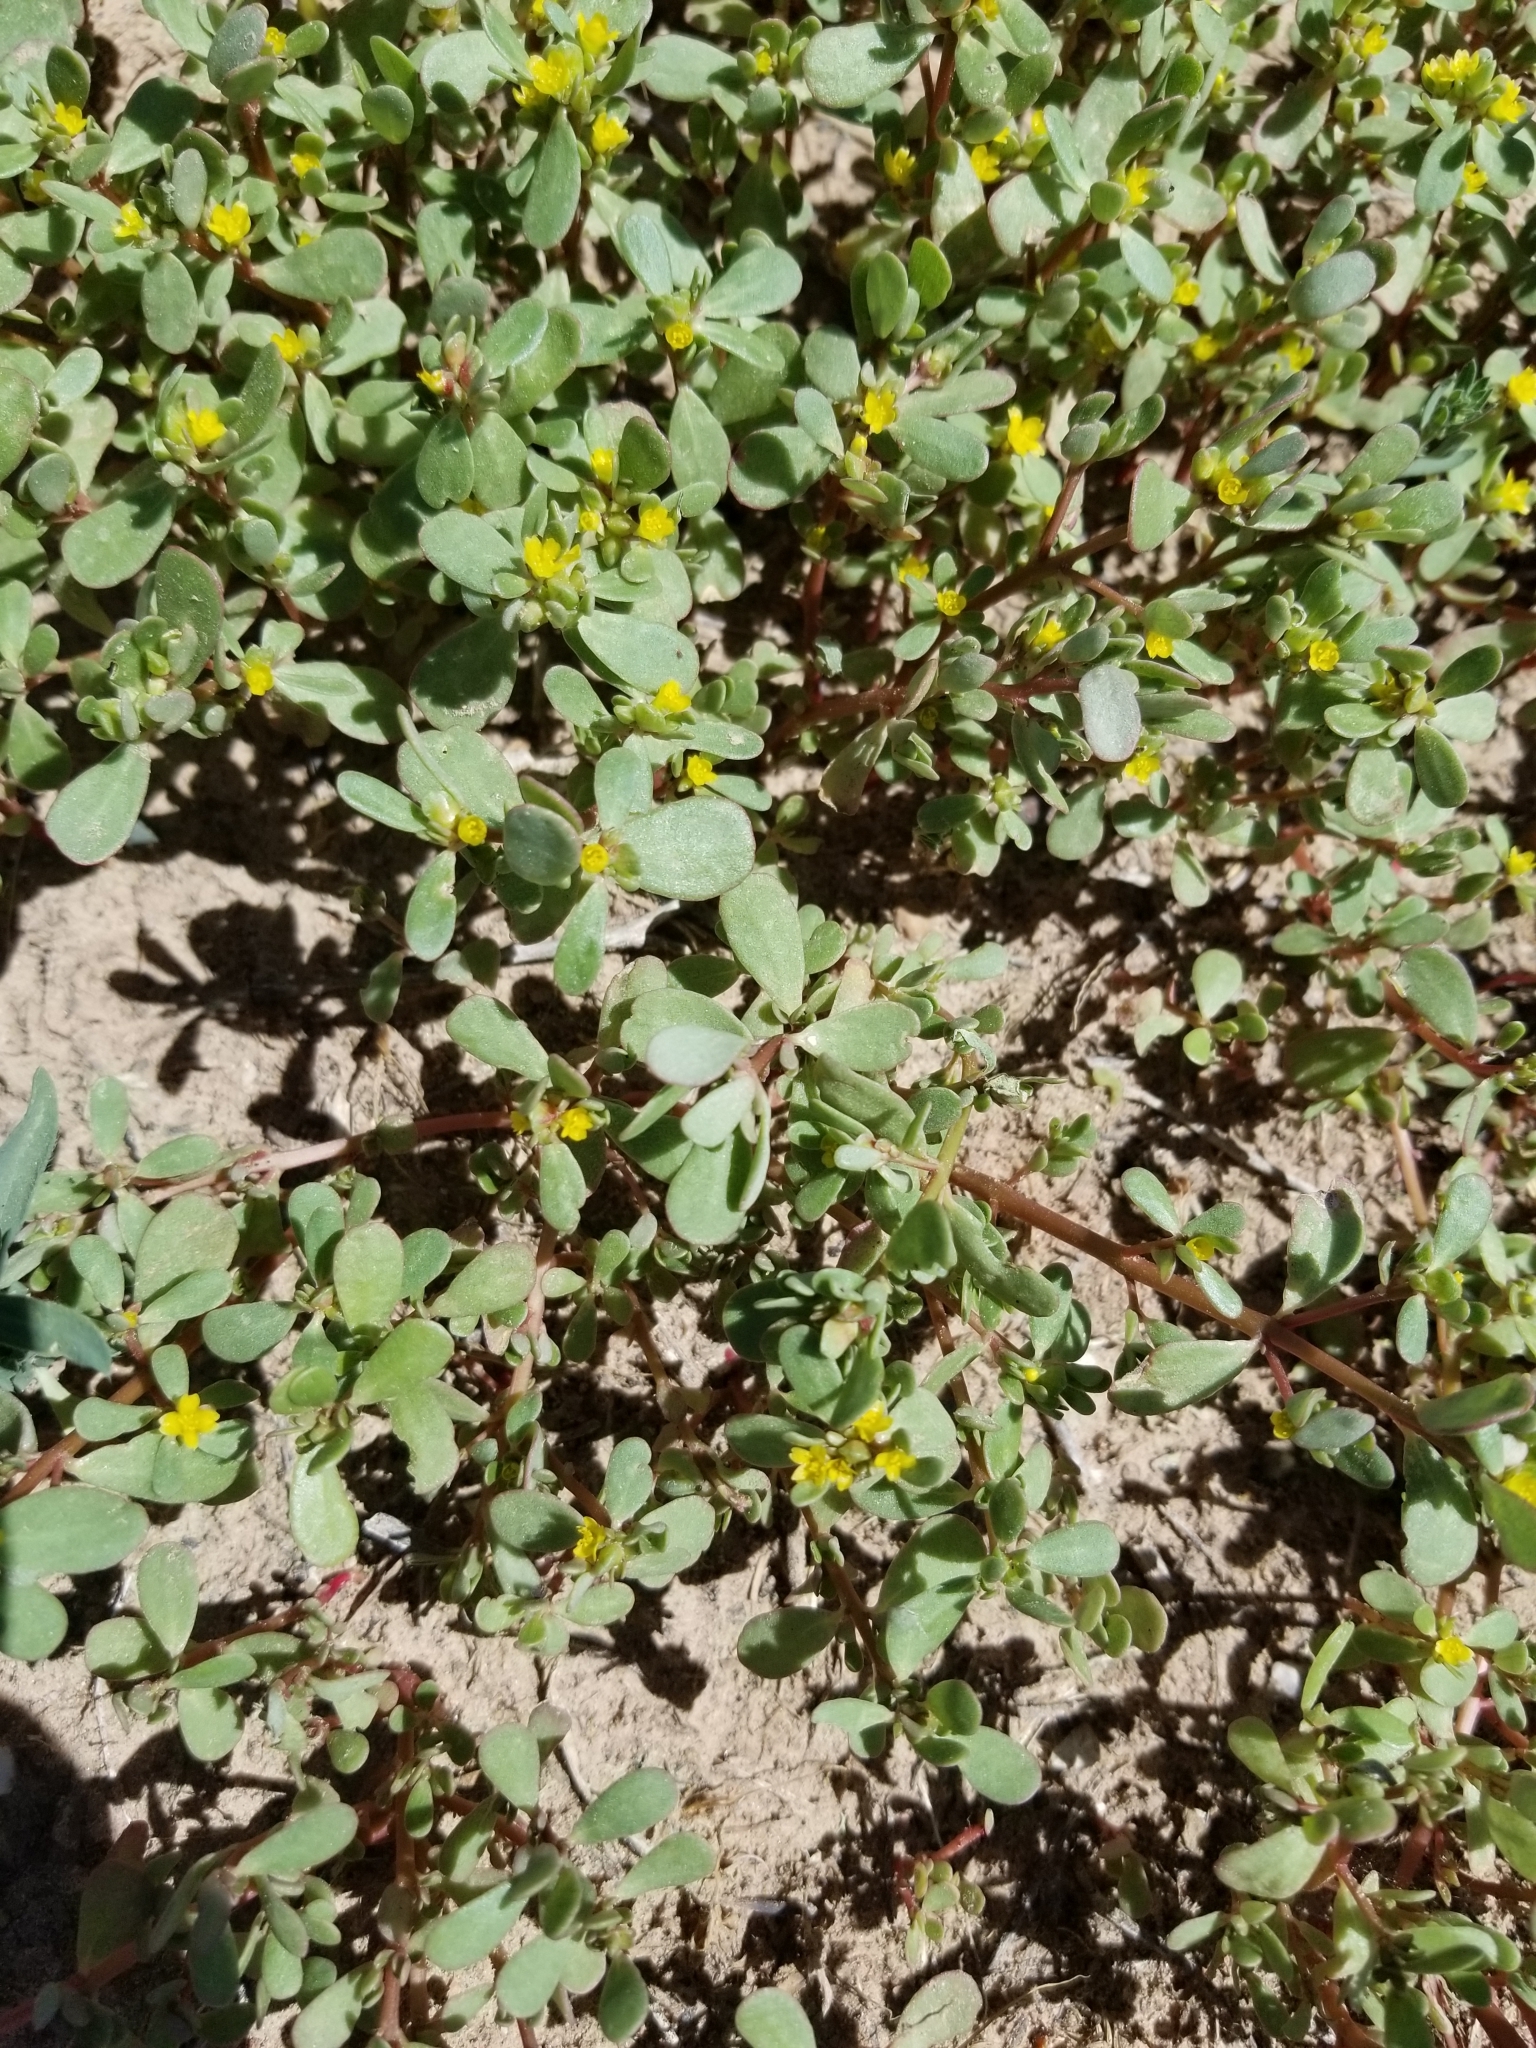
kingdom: Plantae
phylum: Tracheophyta
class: Magnoliopsida
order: Caryophyllales
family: Portulacaceae
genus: Portulaca
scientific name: Portulaca oleracea
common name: Common purslane
